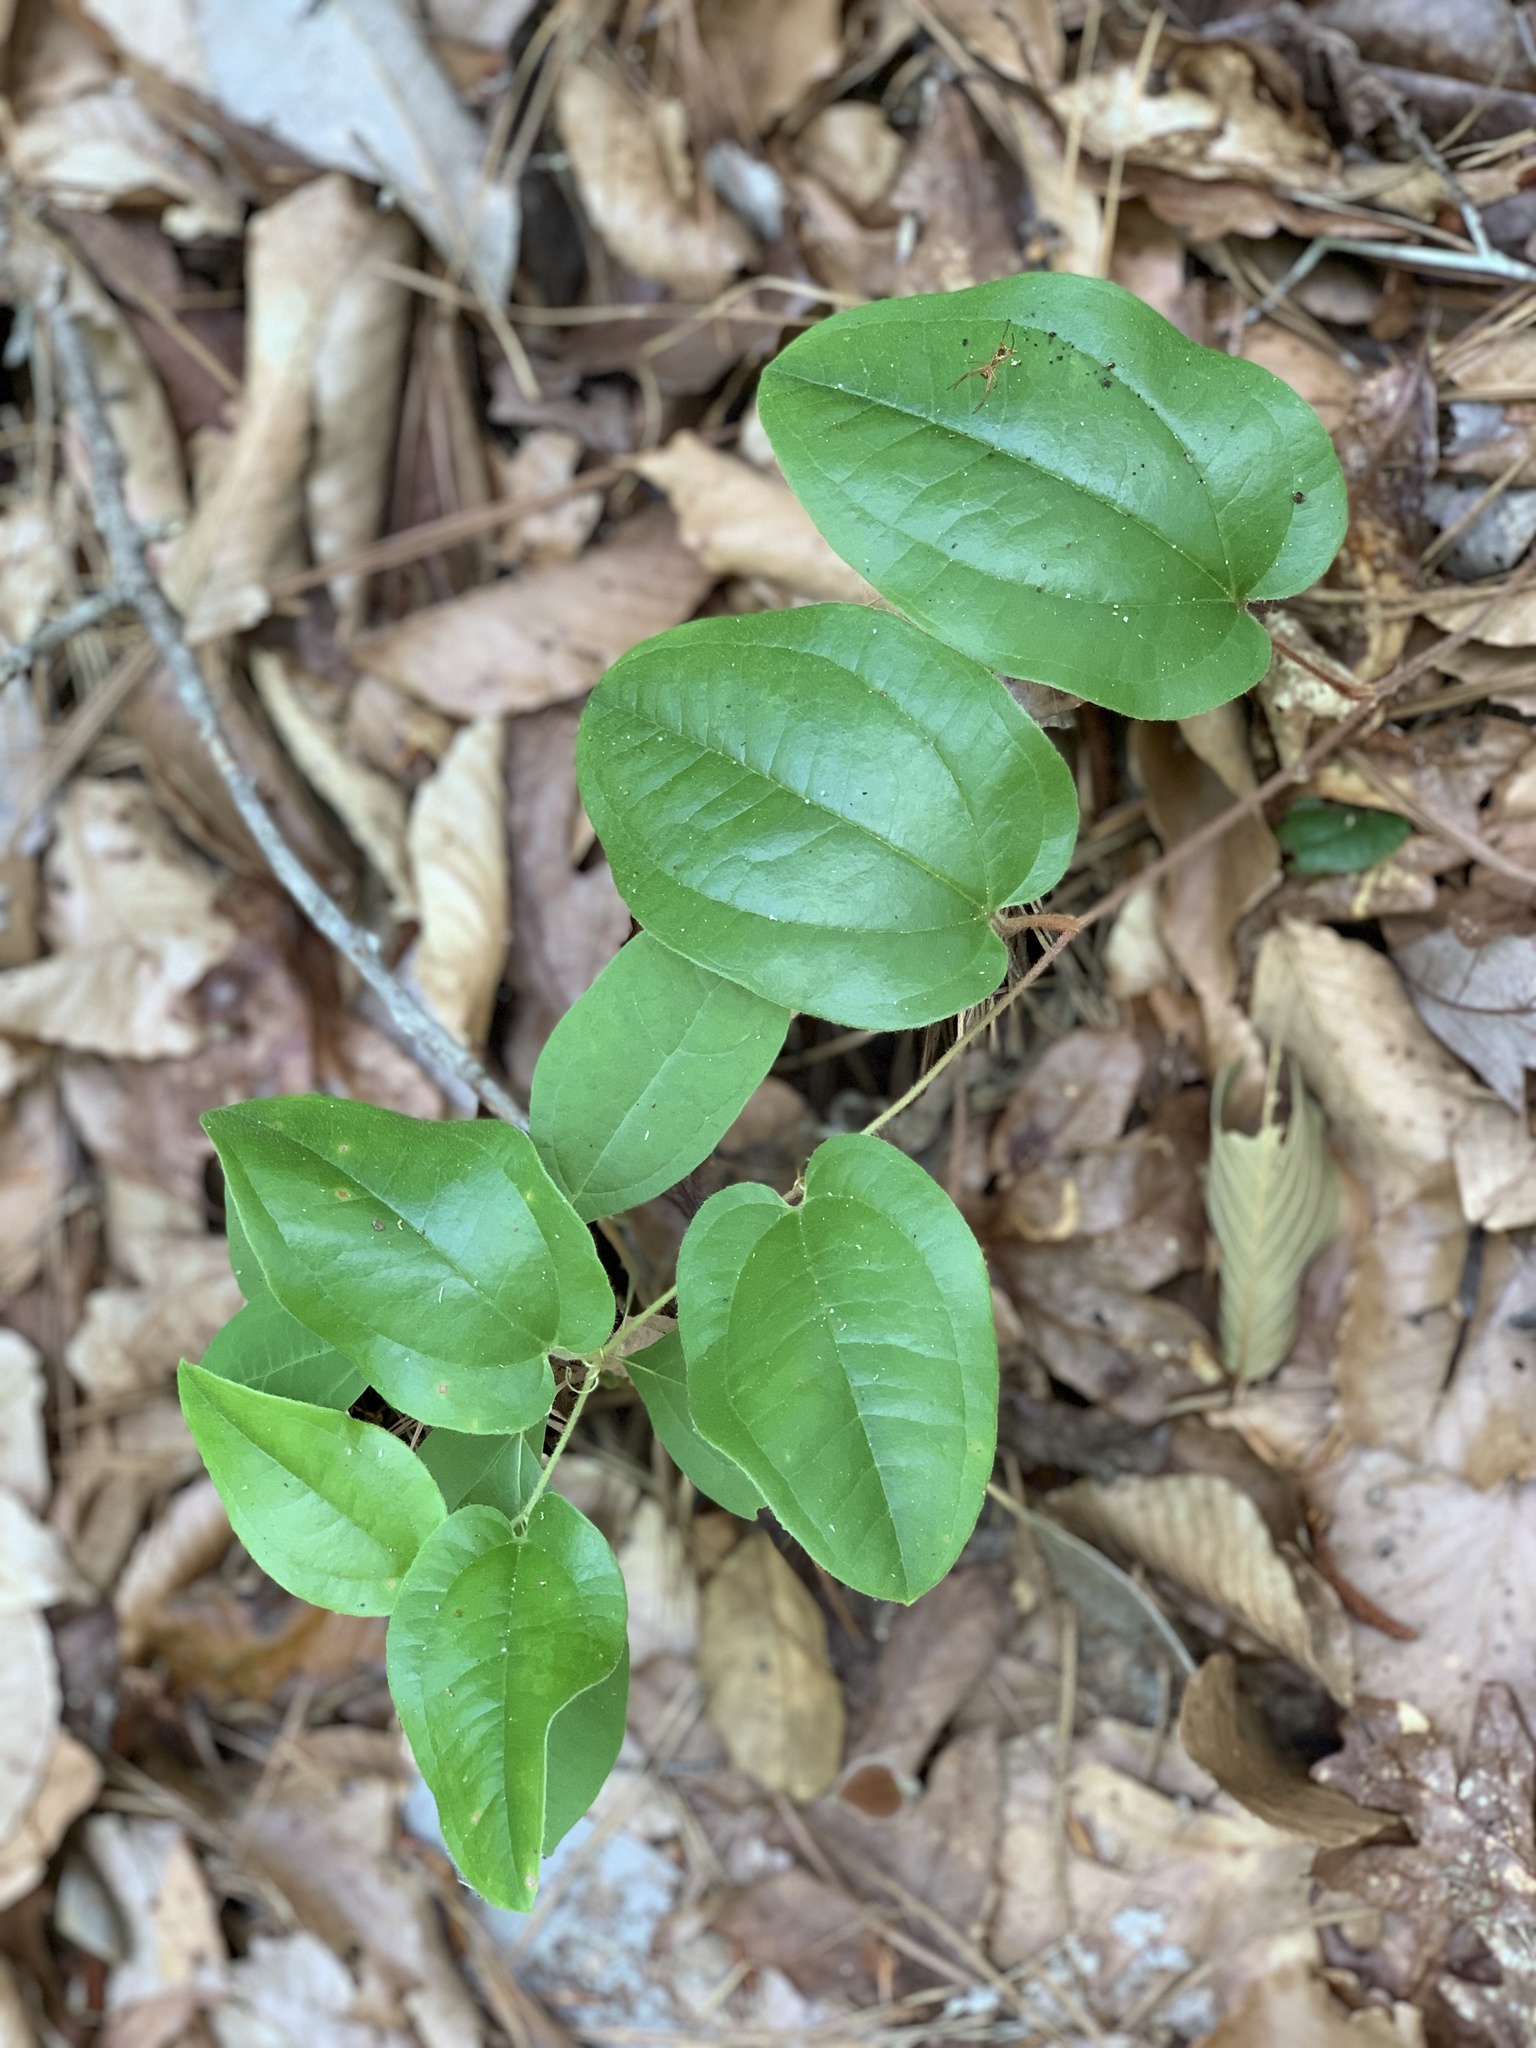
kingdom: Plantae
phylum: Tracheophyta
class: Liliopsida
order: Liliales
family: Smilacaceae
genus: Smilax
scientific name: Smilax pumila
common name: Sarsaparilla-vine
